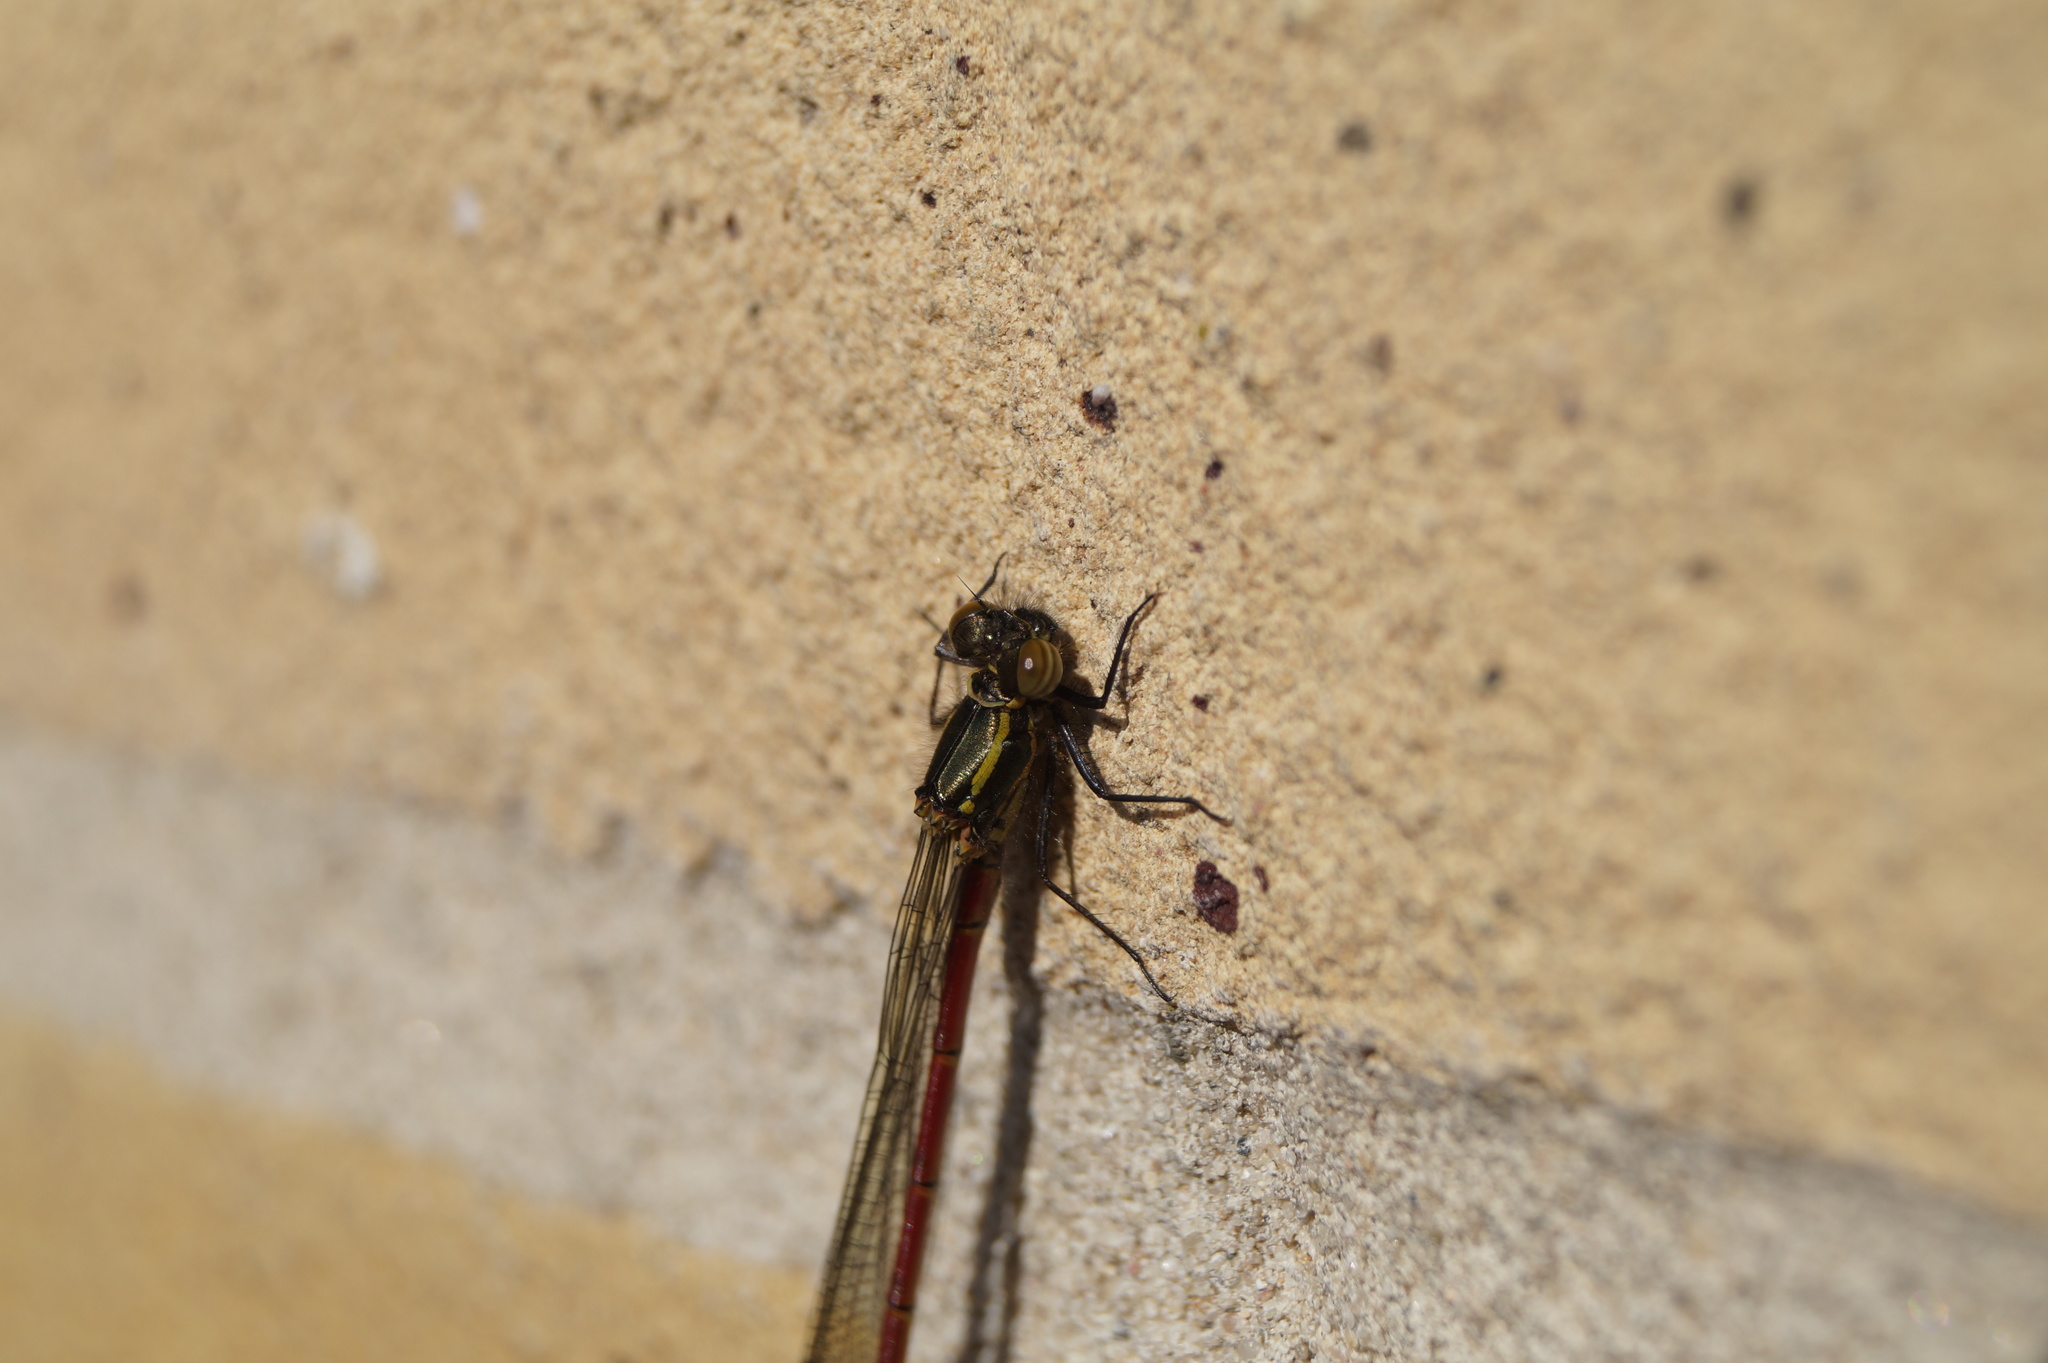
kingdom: Animalia
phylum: Arthropoda
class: Insecta
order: Odonata
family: Coenagrionidae
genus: Pyrrhosoma
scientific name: Pyrrhosoma nymphula
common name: Large red damsel
